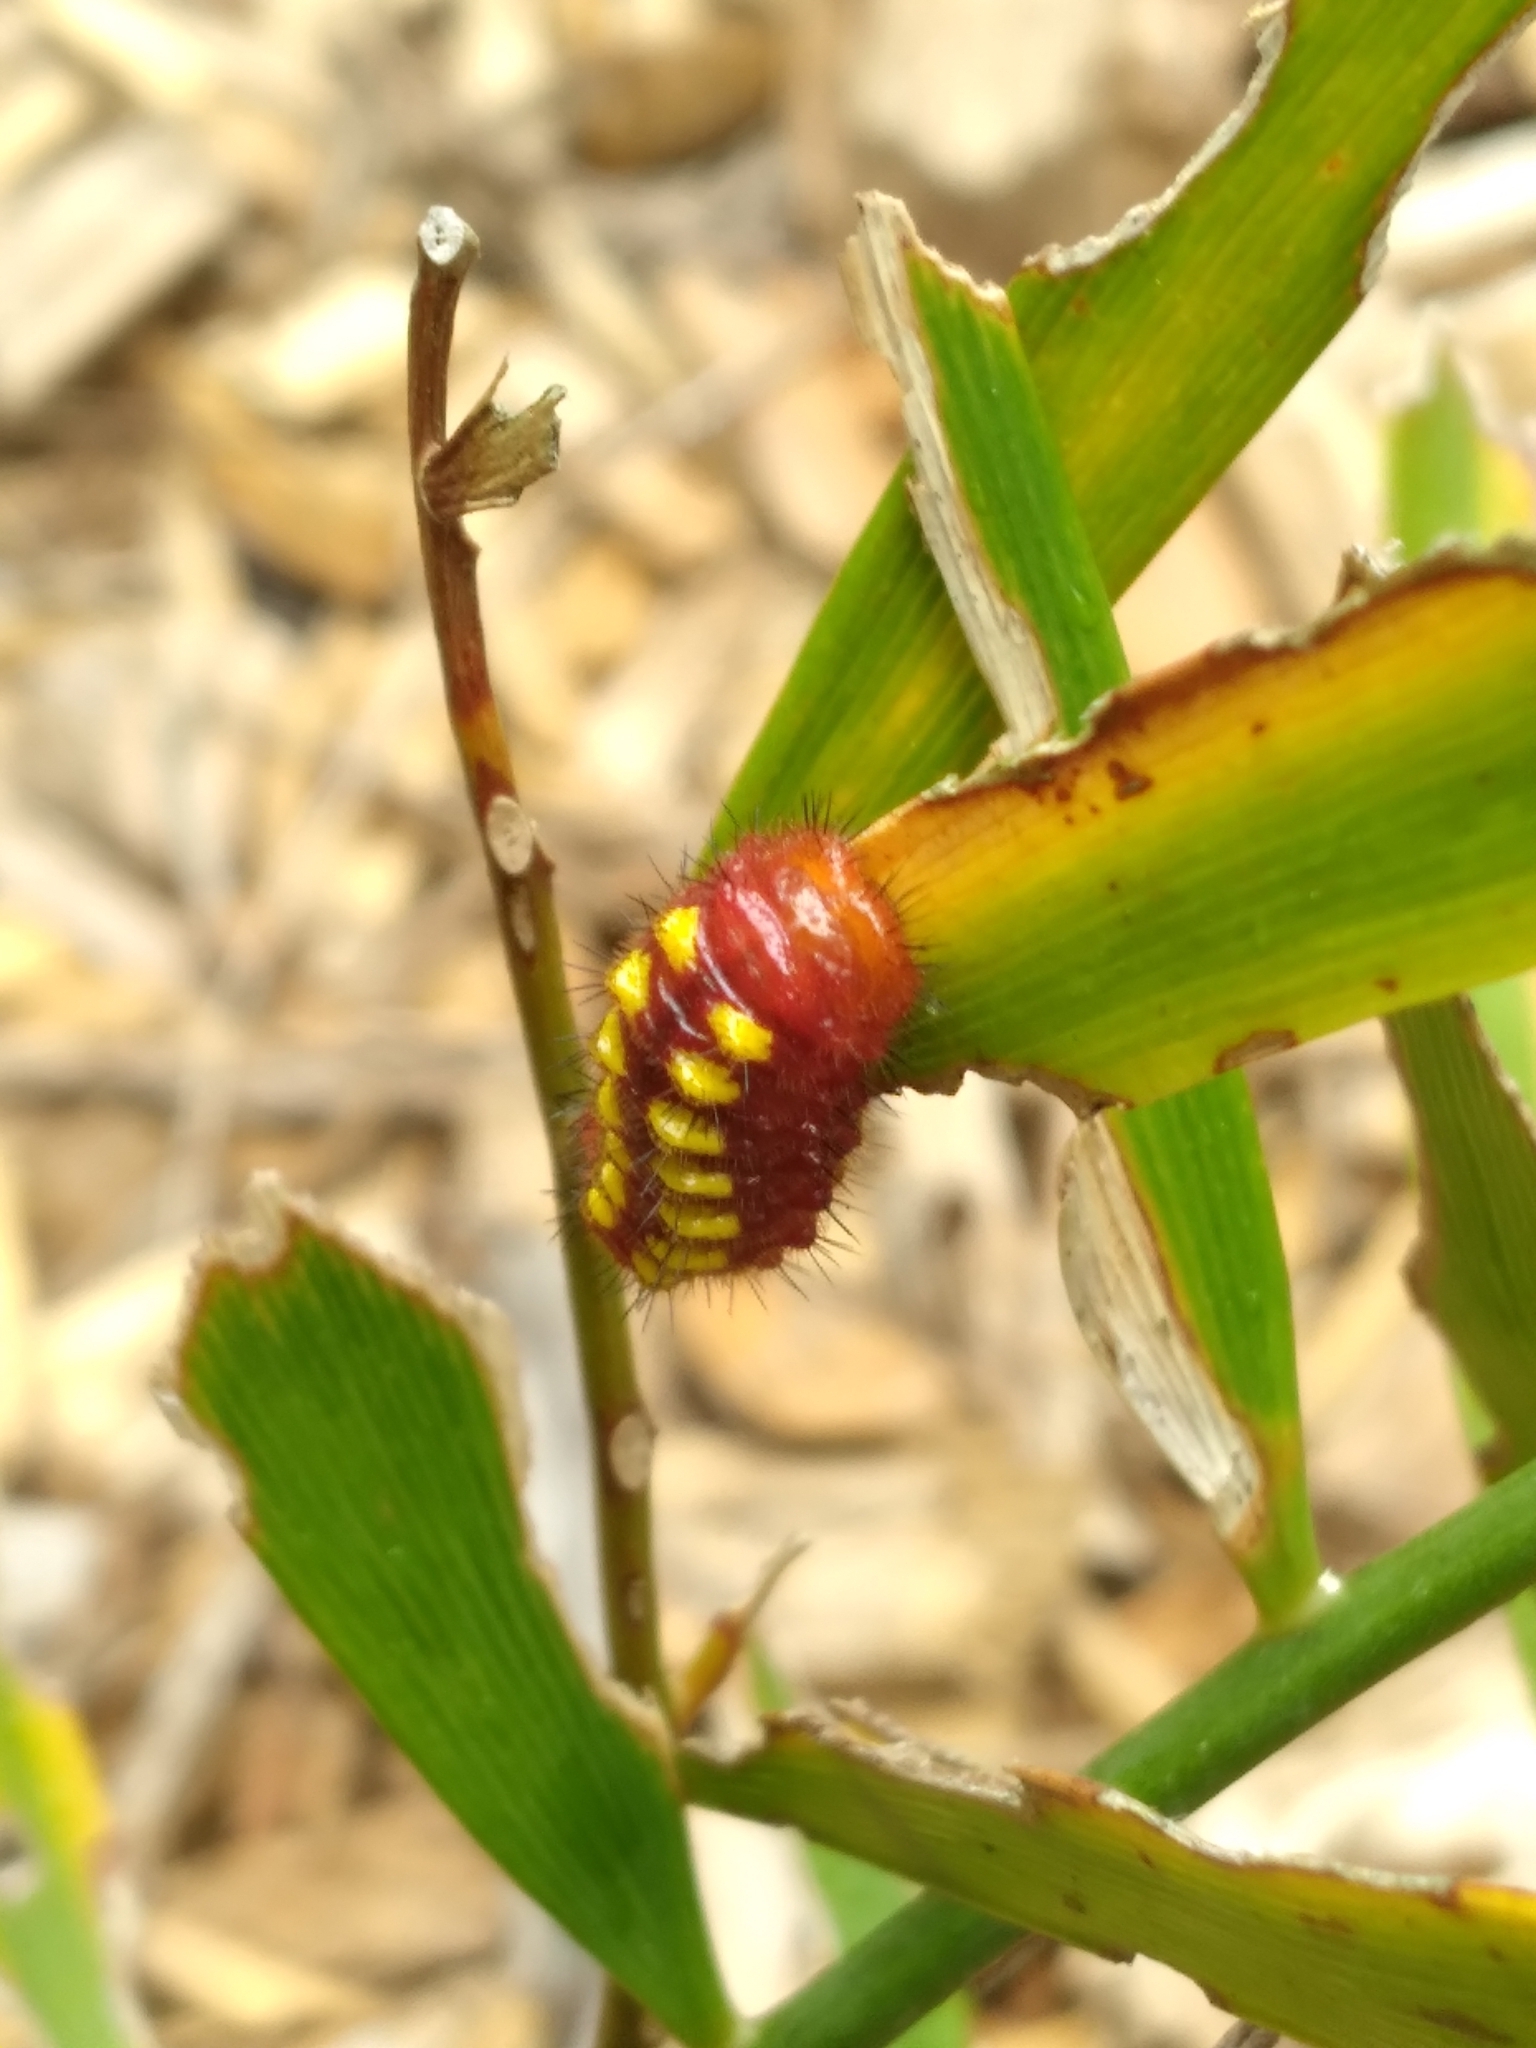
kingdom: Animalia
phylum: Arthropoda
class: Insecta
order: Lepidoptera
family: Lycaenidae
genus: Eumaeus
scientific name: Eumaeus atala
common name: Atala
